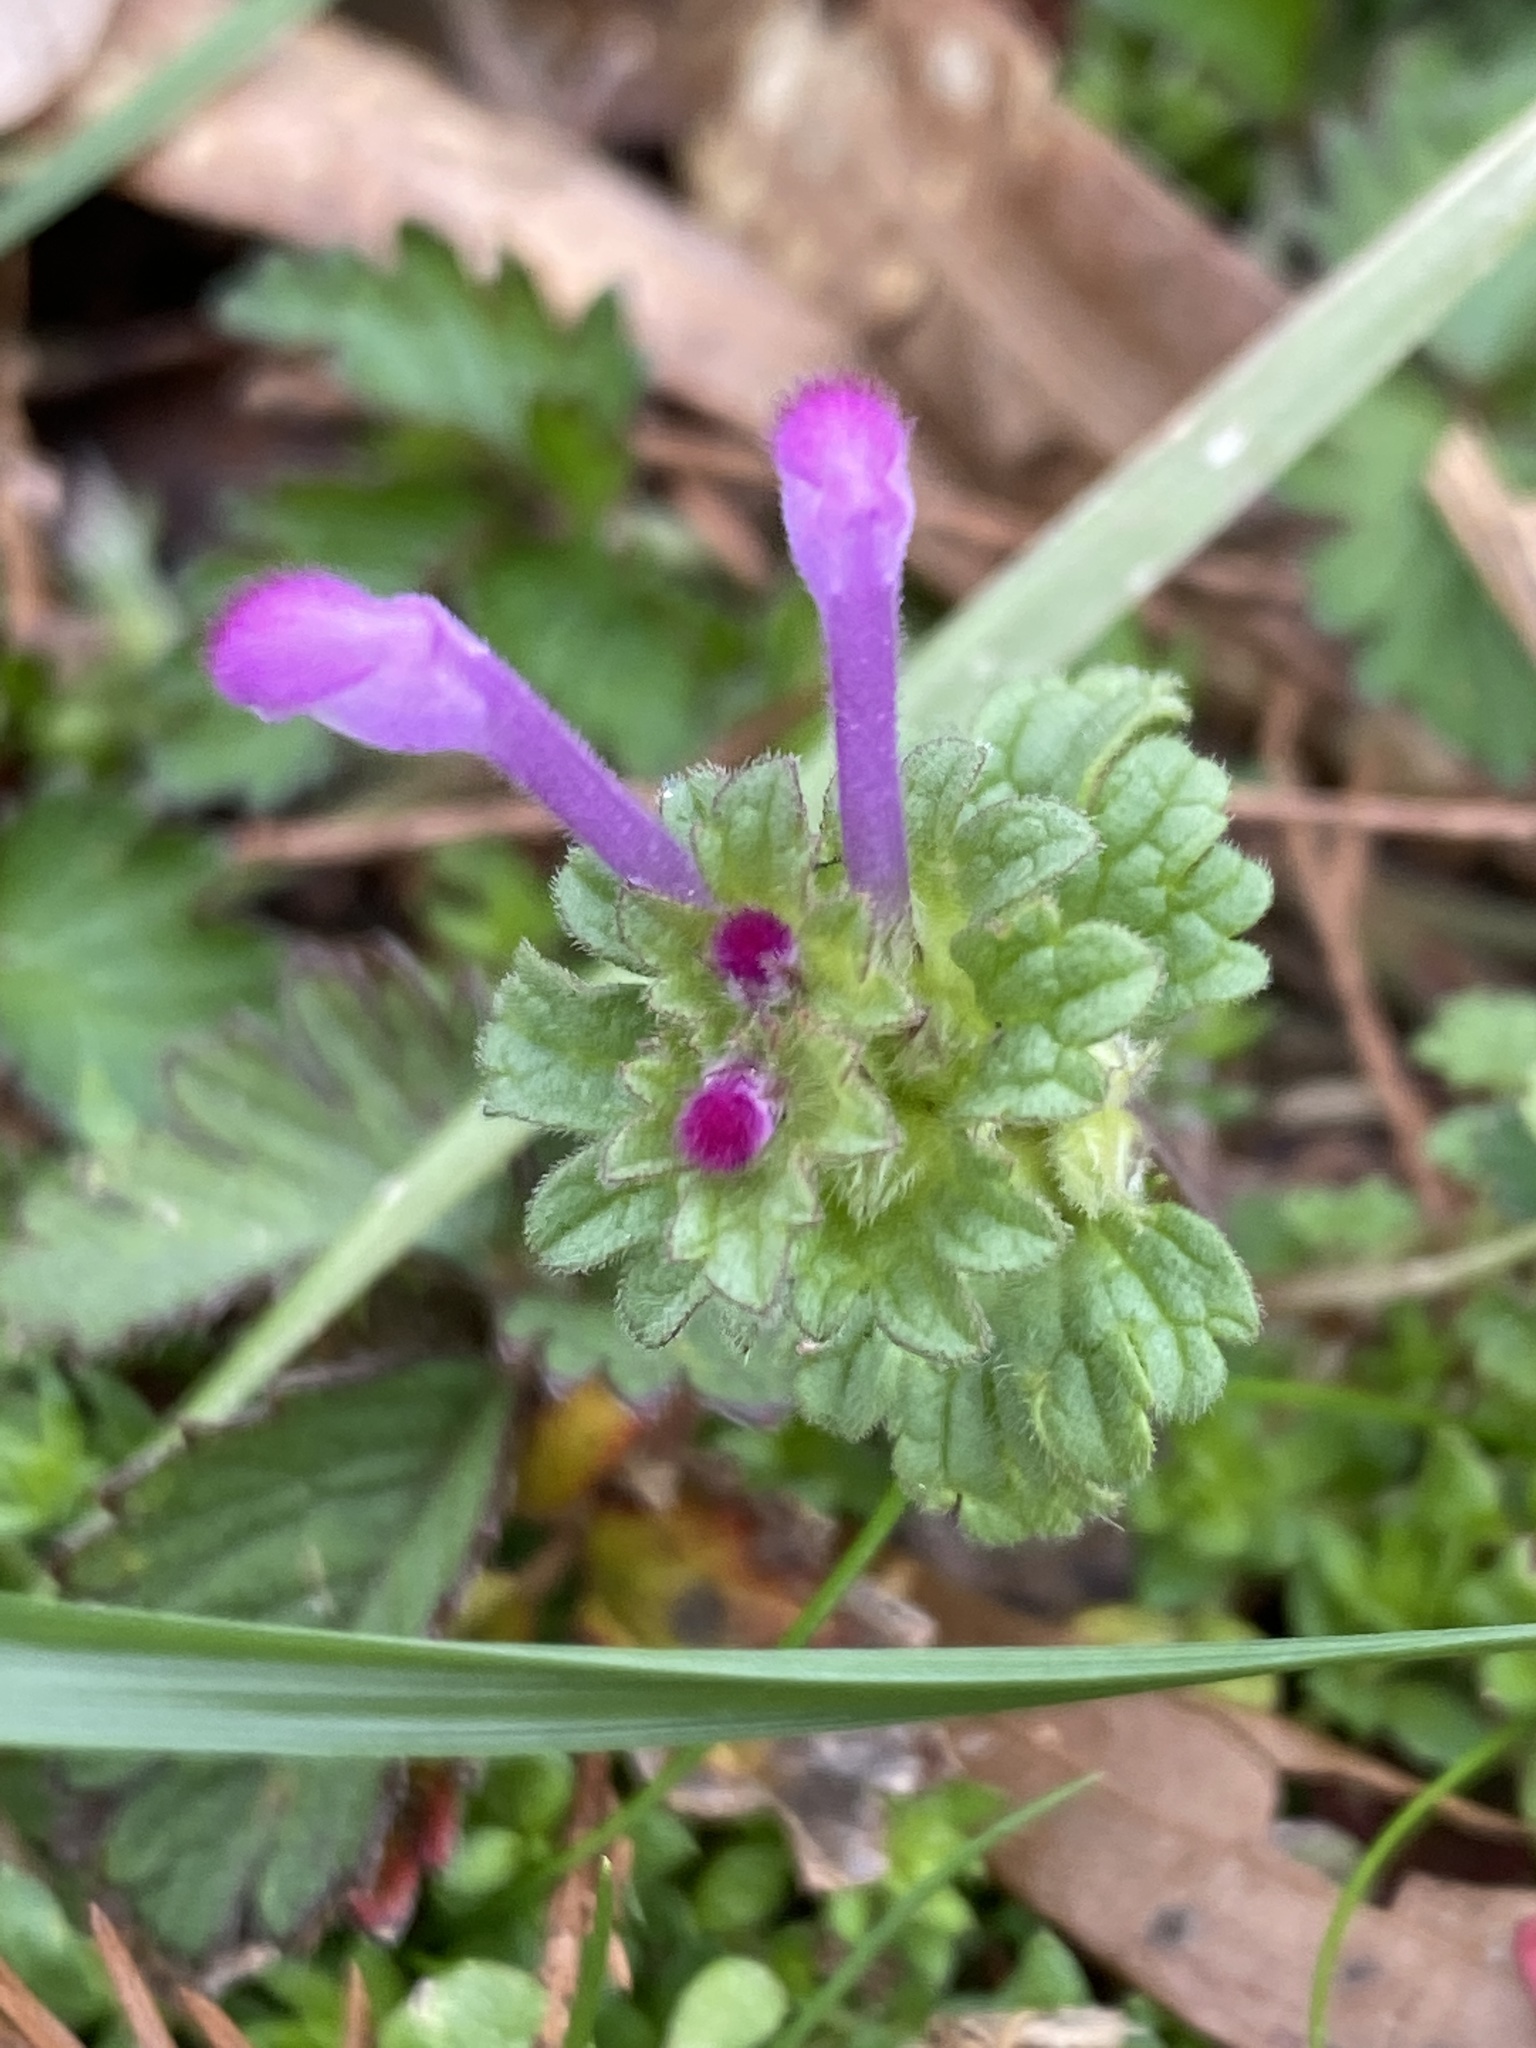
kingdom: Plantae
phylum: Tracheophyta
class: Magnoliopsida
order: Lamiales
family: Lamiaceae
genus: Lamium
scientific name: Lamium amplexicaule
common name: Henbit dead-nettle
